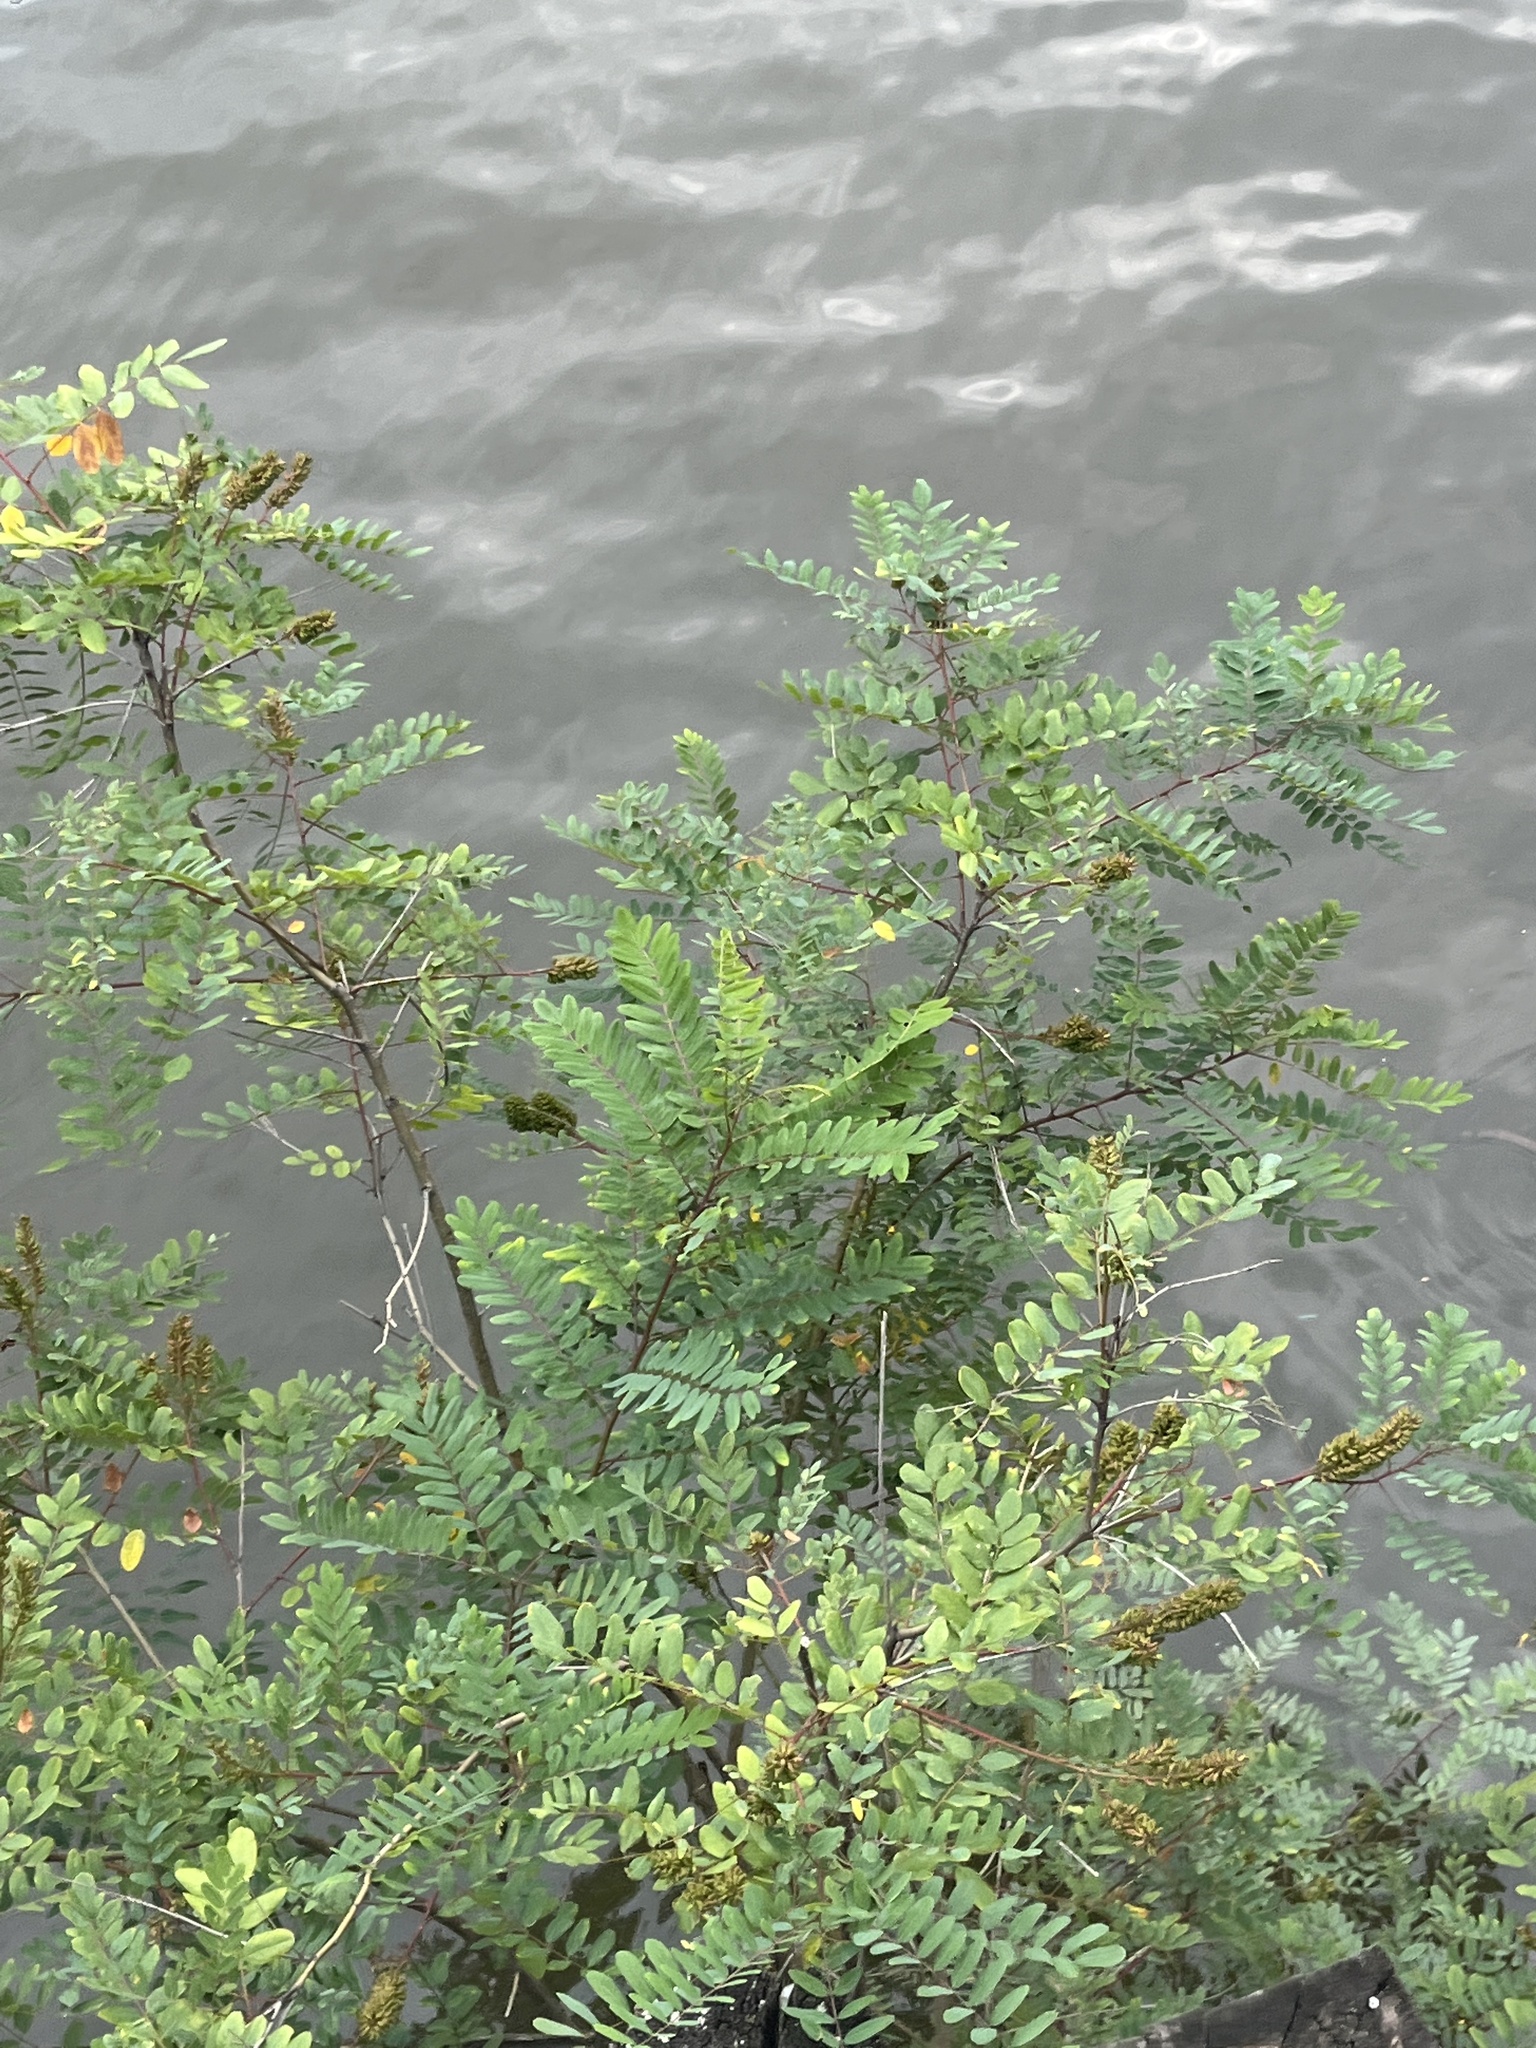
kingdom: Plantae
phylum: Tracheophyta
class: Magnoliopsida
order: Fabales
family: Fabaceae
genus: Amorpha
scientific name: Amorpha fruticosa
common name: False indigo
